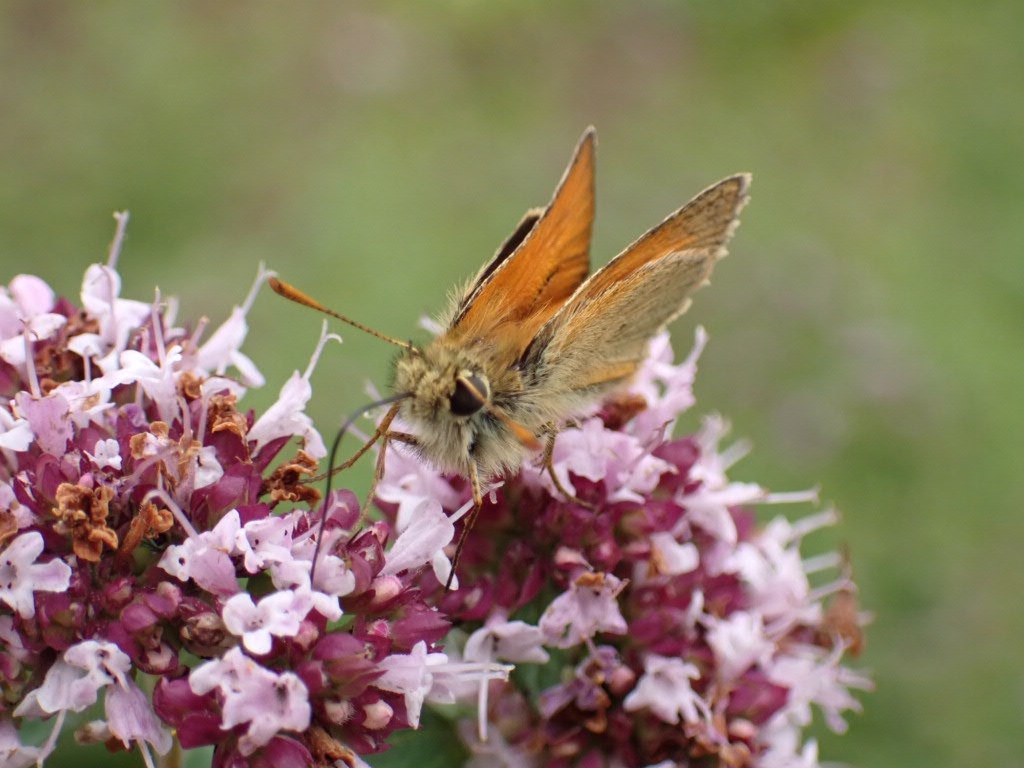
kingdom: Animalia
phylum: Arthropoda
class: Insecta
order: Lepidoptera
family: Hesperiidae
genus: Thymelicus
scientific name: Thymelicus sylvestris
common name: Small skipper
